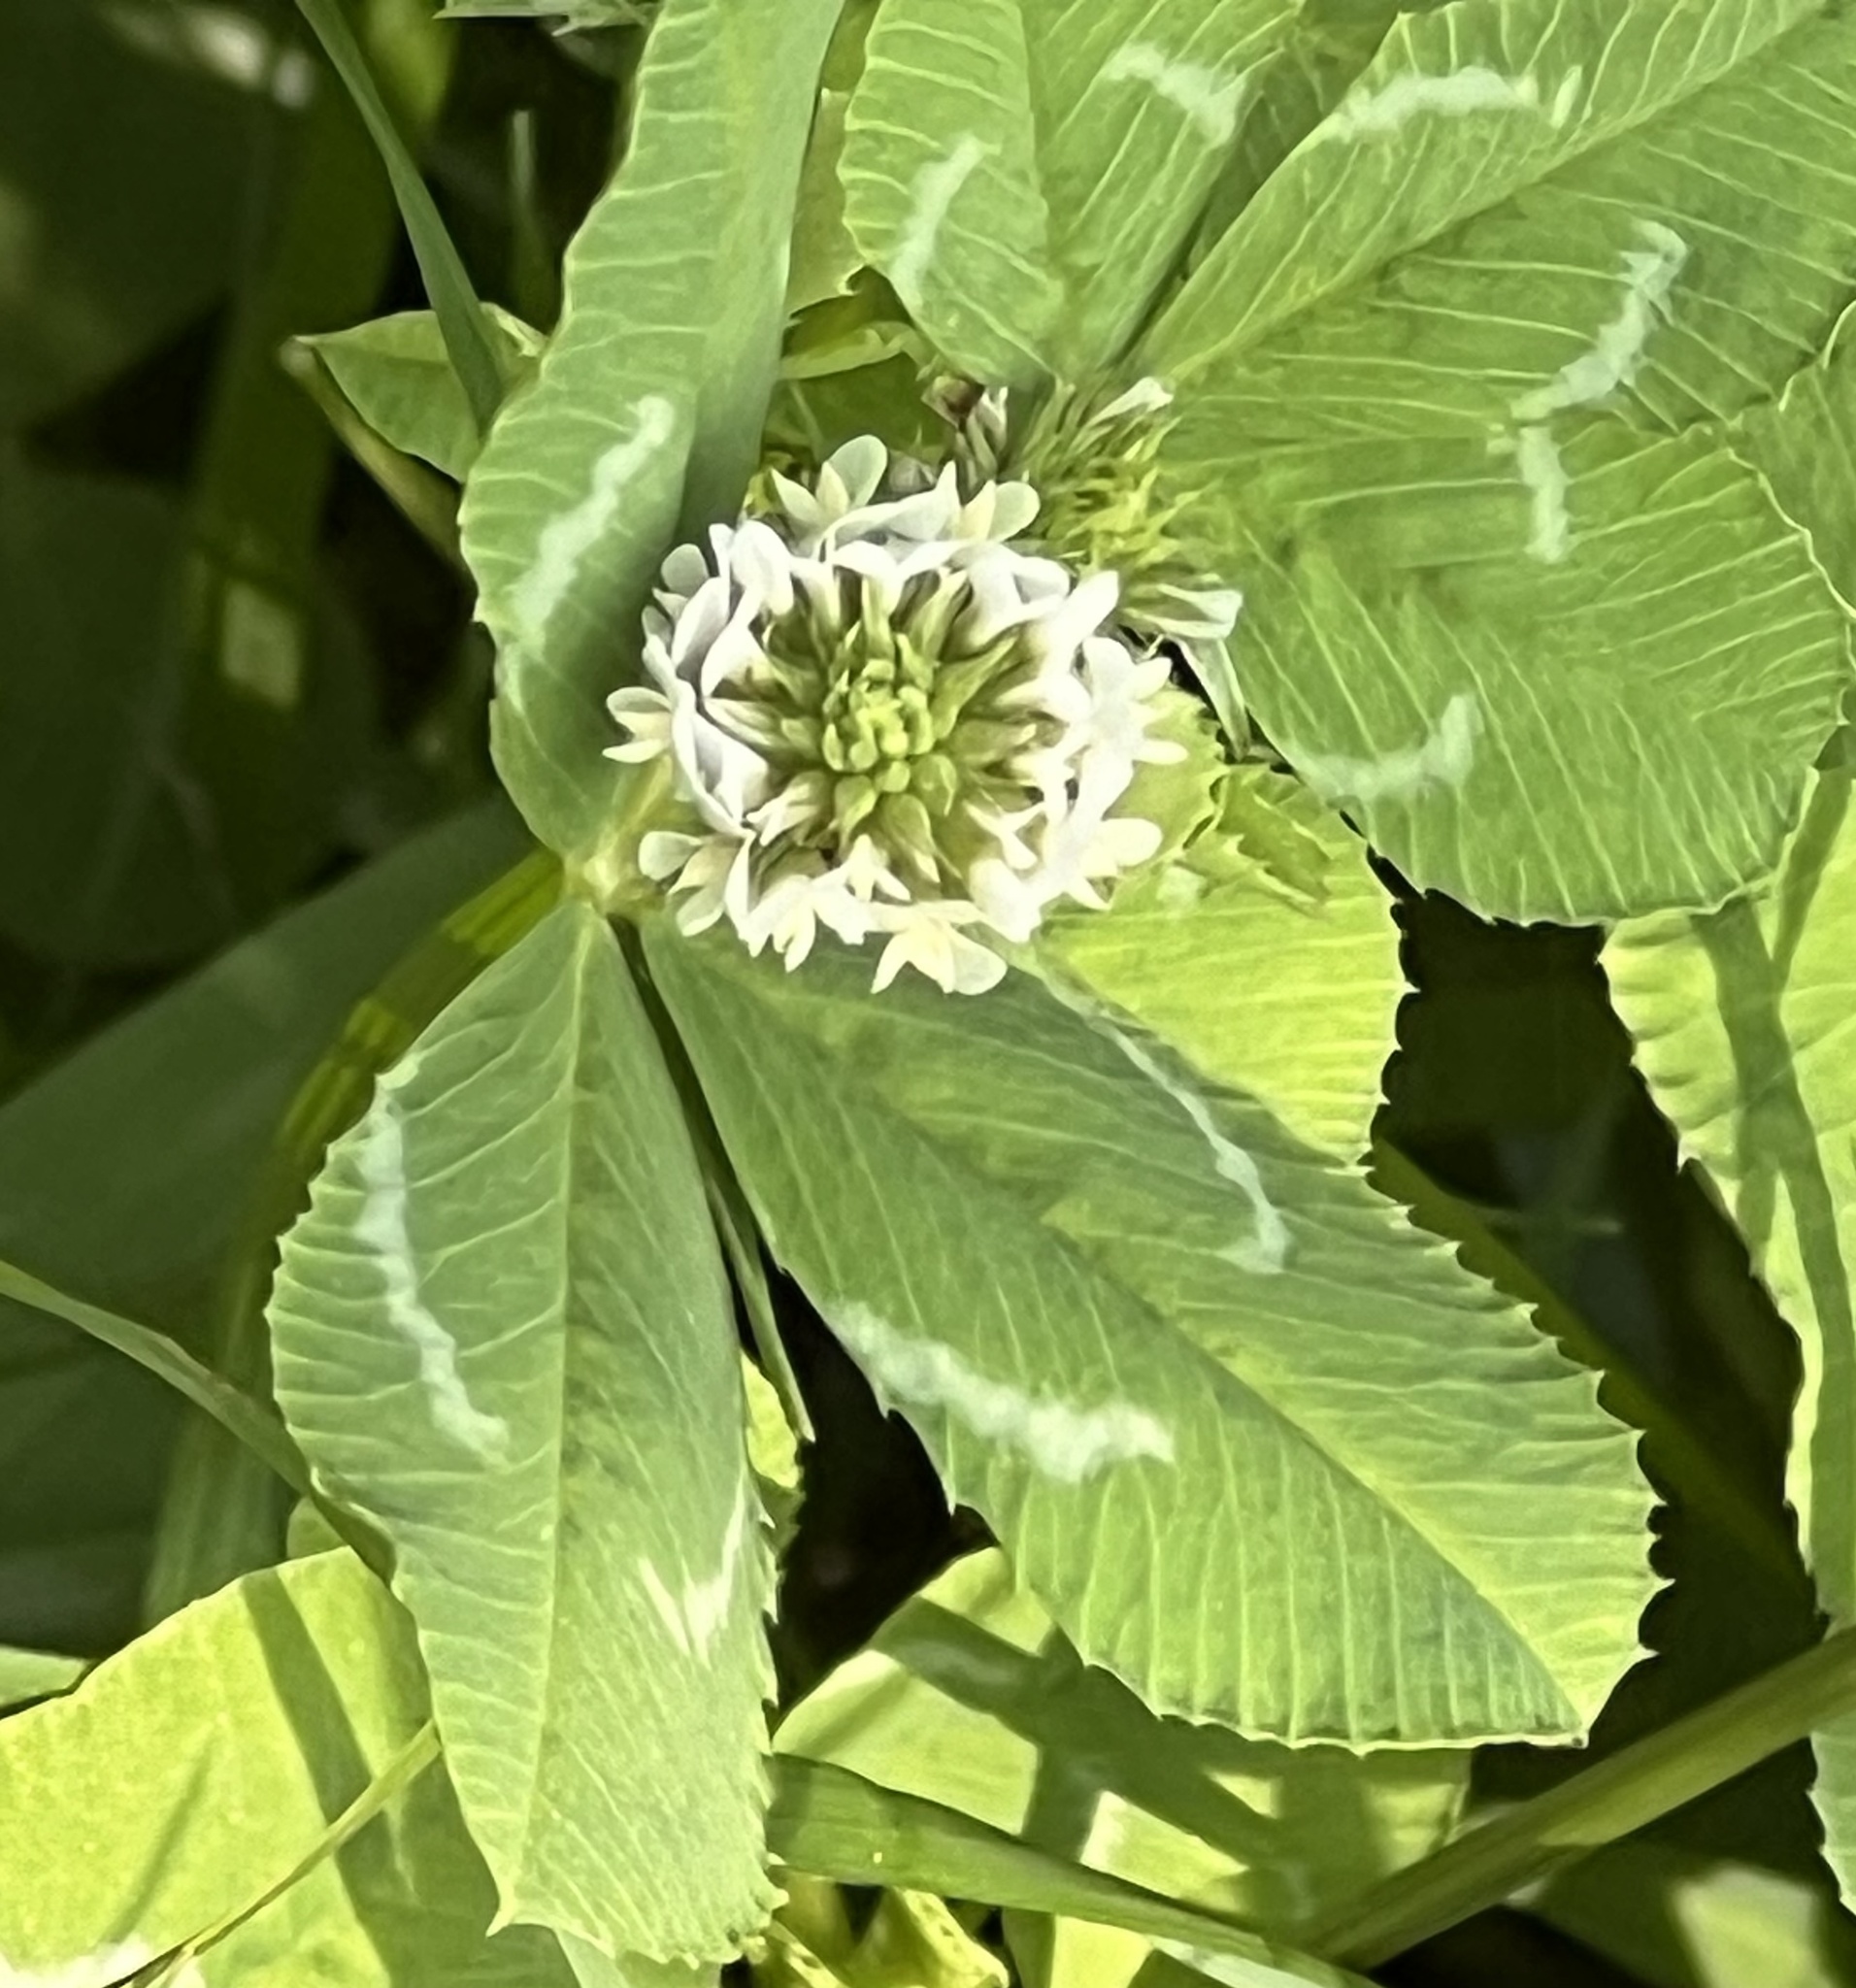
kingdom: Plantae
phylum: Tracheophyta
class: Magnoliopsida
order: Fabales
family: Fabaceae
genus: Trifolium
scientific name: Trifolium repens
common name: White clover
